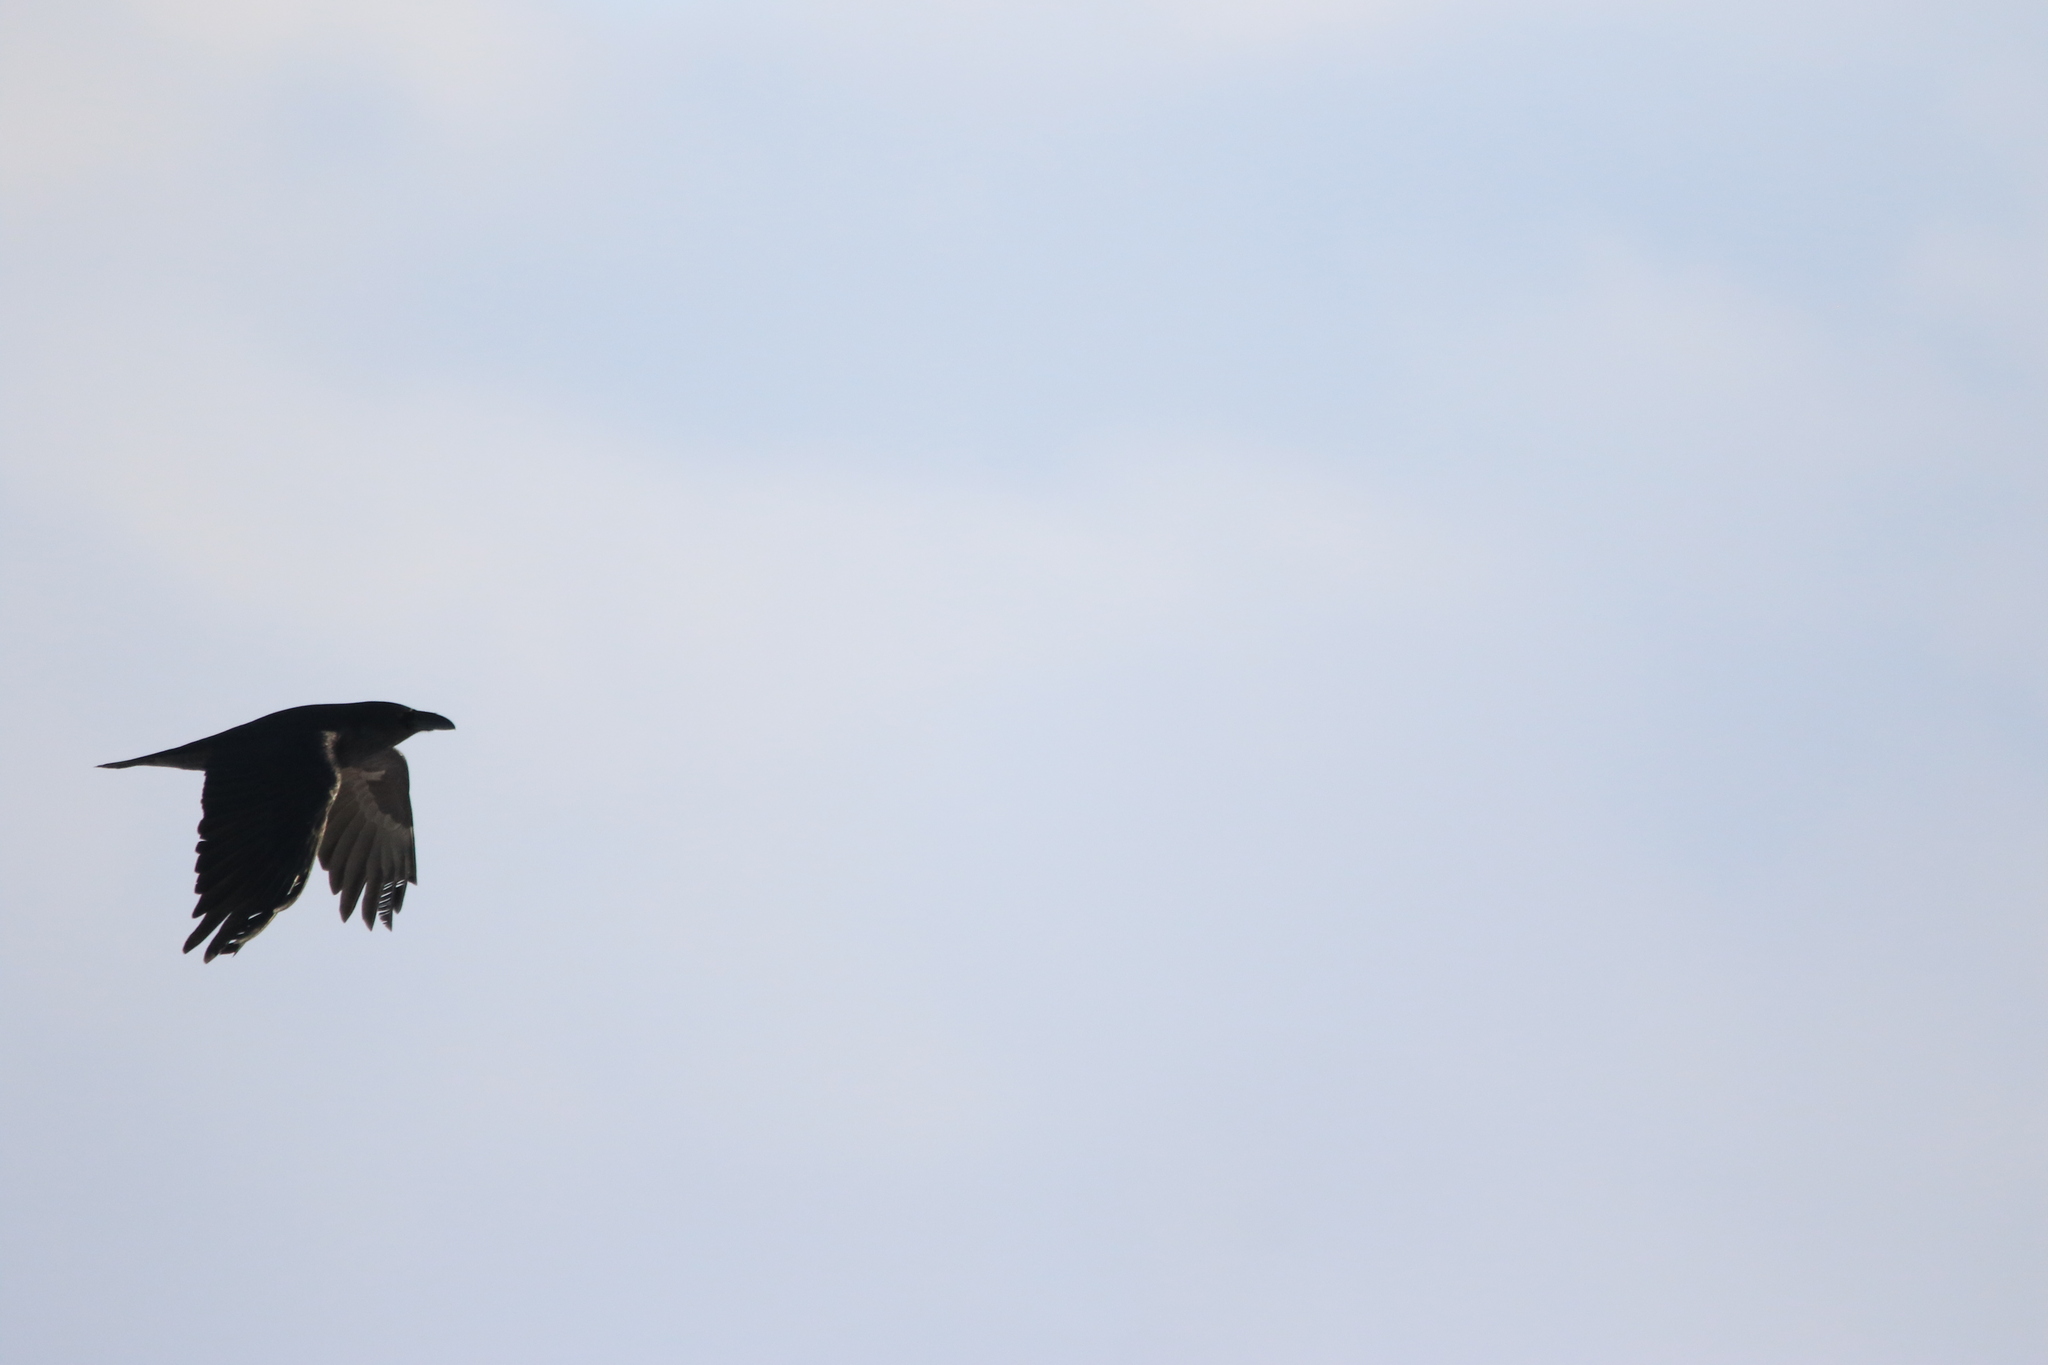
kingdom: Animalia
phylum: Chordata
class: Aves
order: Passeriformes
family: Corvidae
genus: Corvus
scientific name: Corvus corax
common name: Common raven
